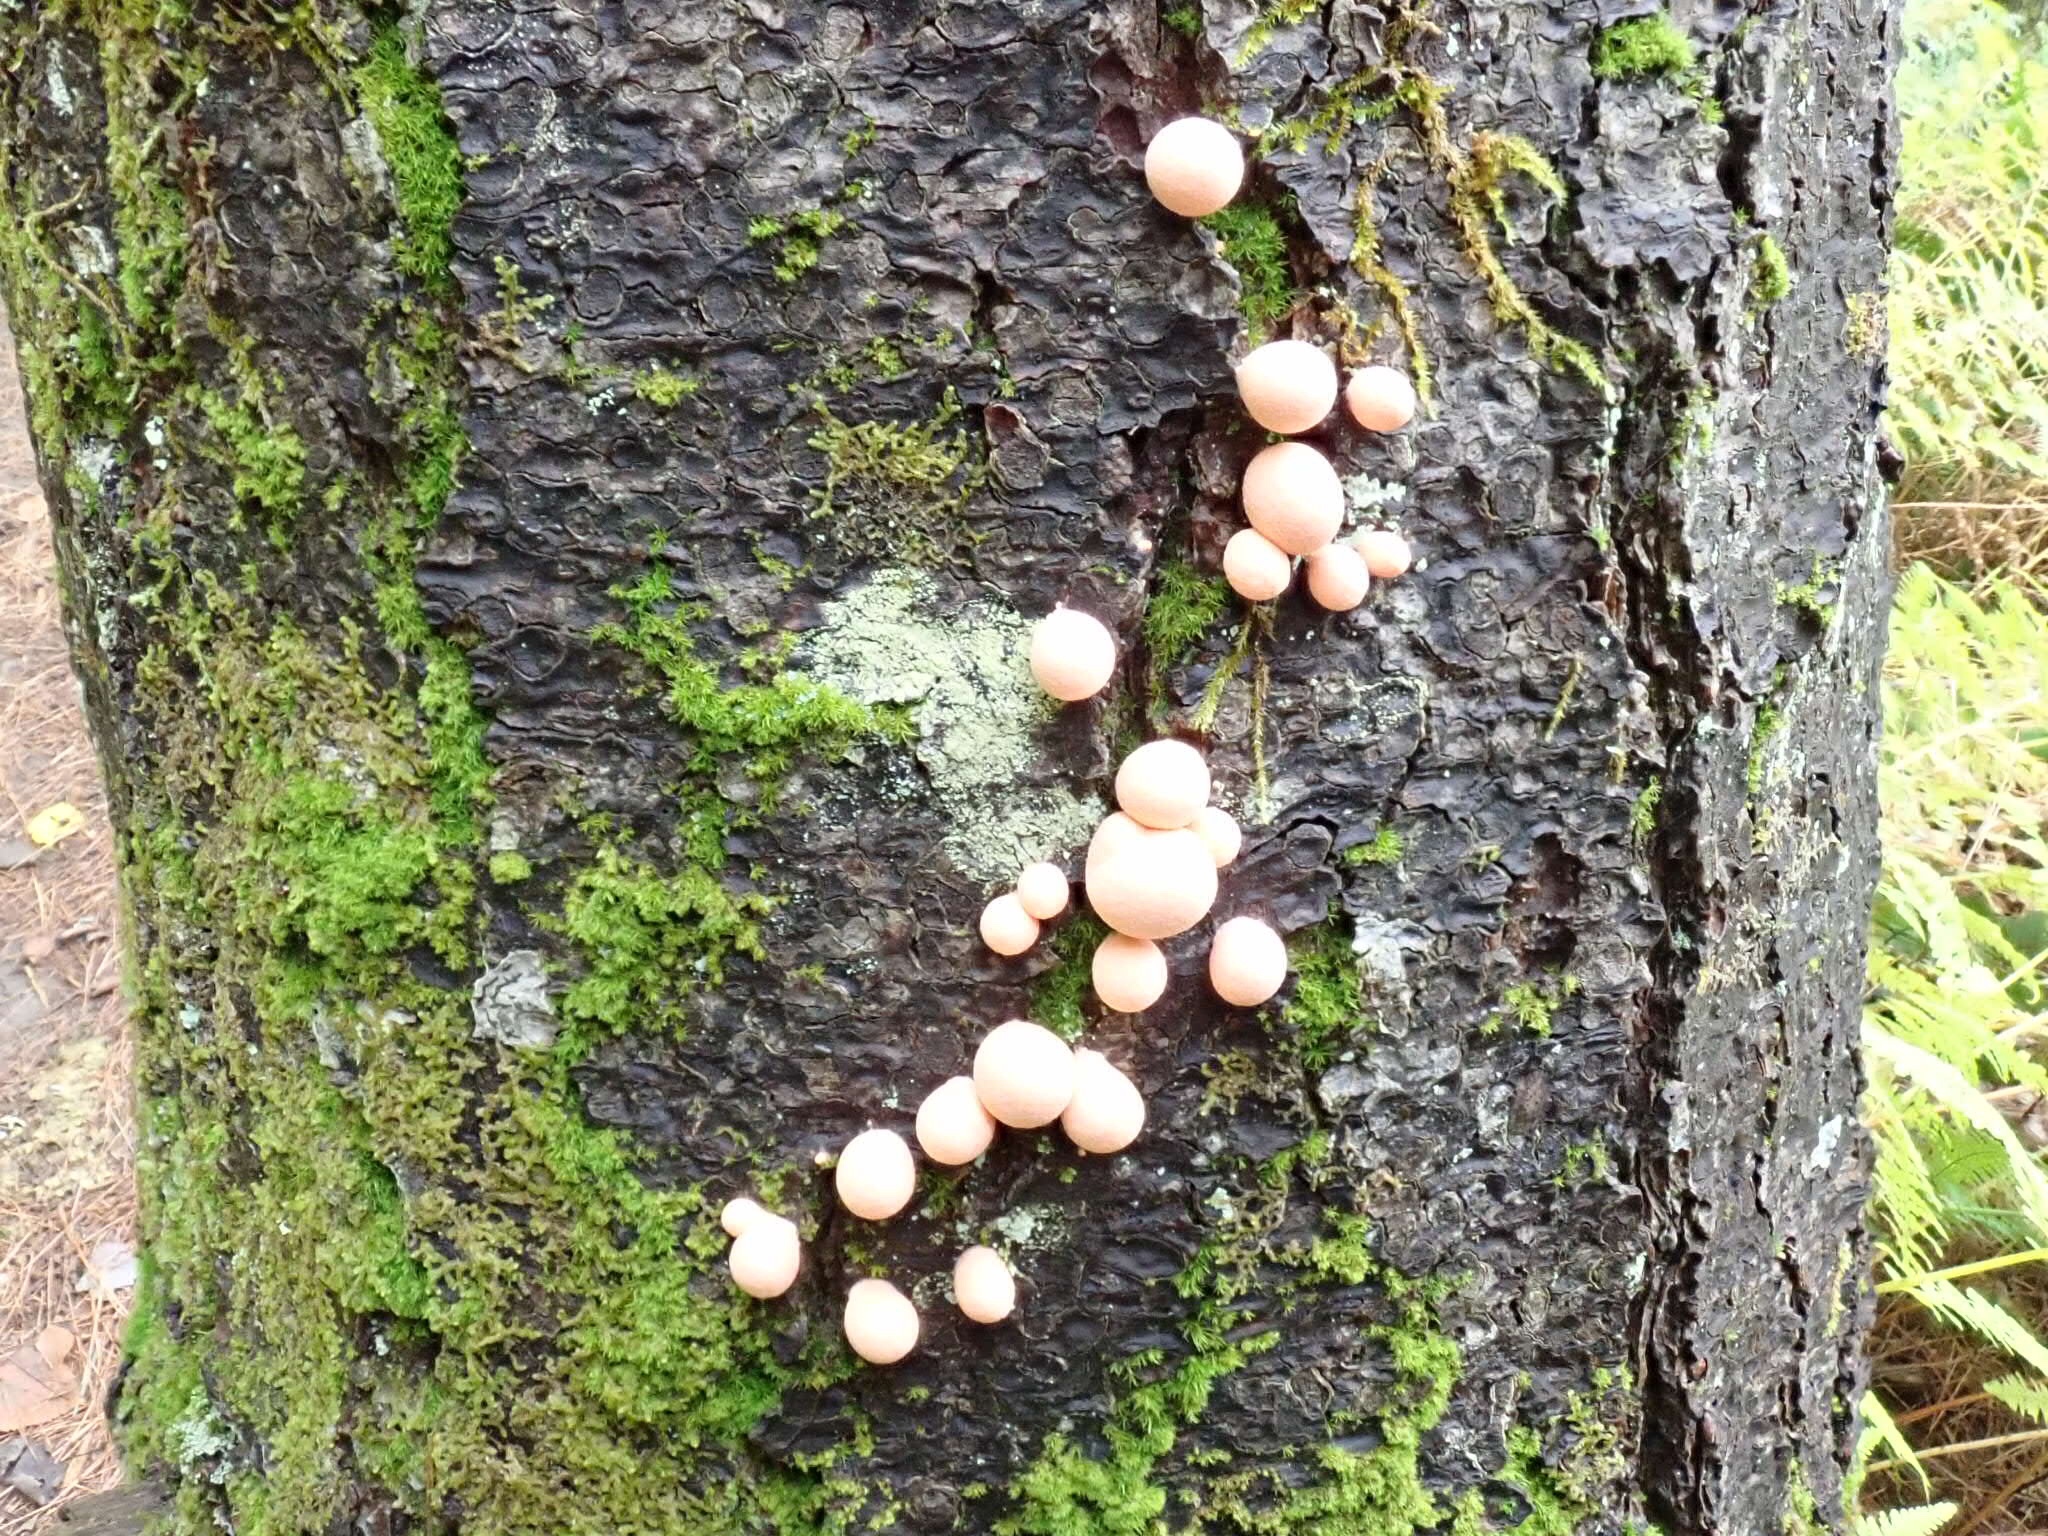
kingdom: Protozoa
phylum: Mycetozoa
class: Myxomycetes
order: Cribrariales
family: Tubiferaceae
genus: Lycogala
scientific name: Lycogala epidendrum
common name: Wolf's milk
